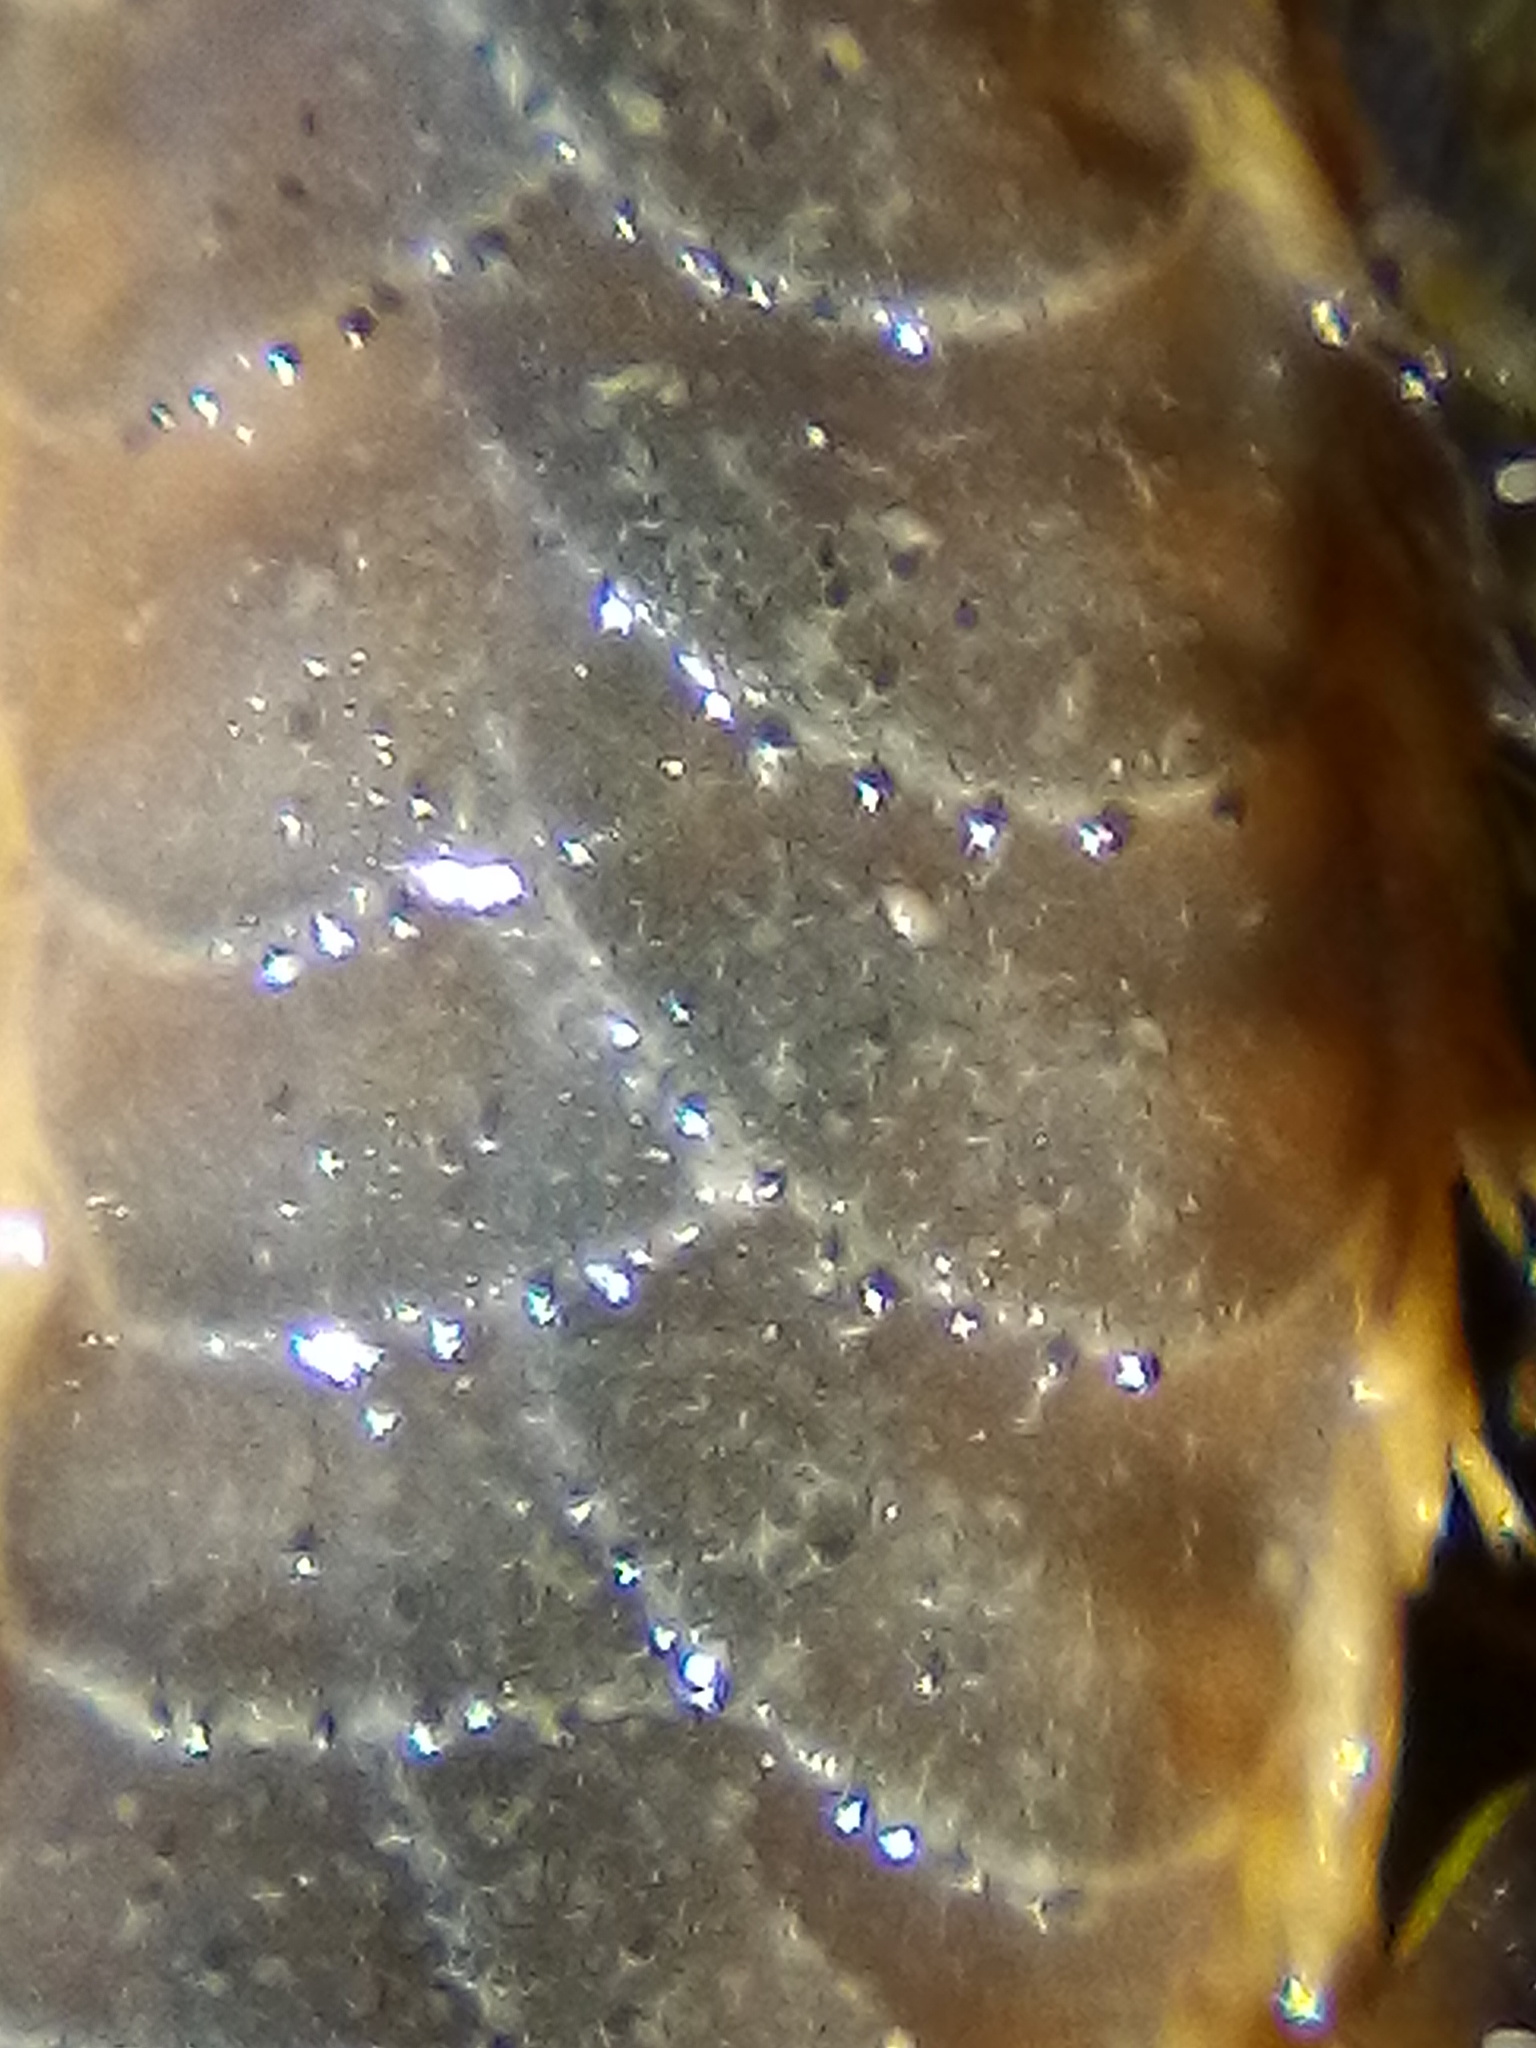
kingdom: Animalia
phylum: Annelida
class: Polychaeta
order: Phyllodocida
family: Polynoidae
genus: Paralepidonotus
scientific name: Paralepidonotus ampulliferus
